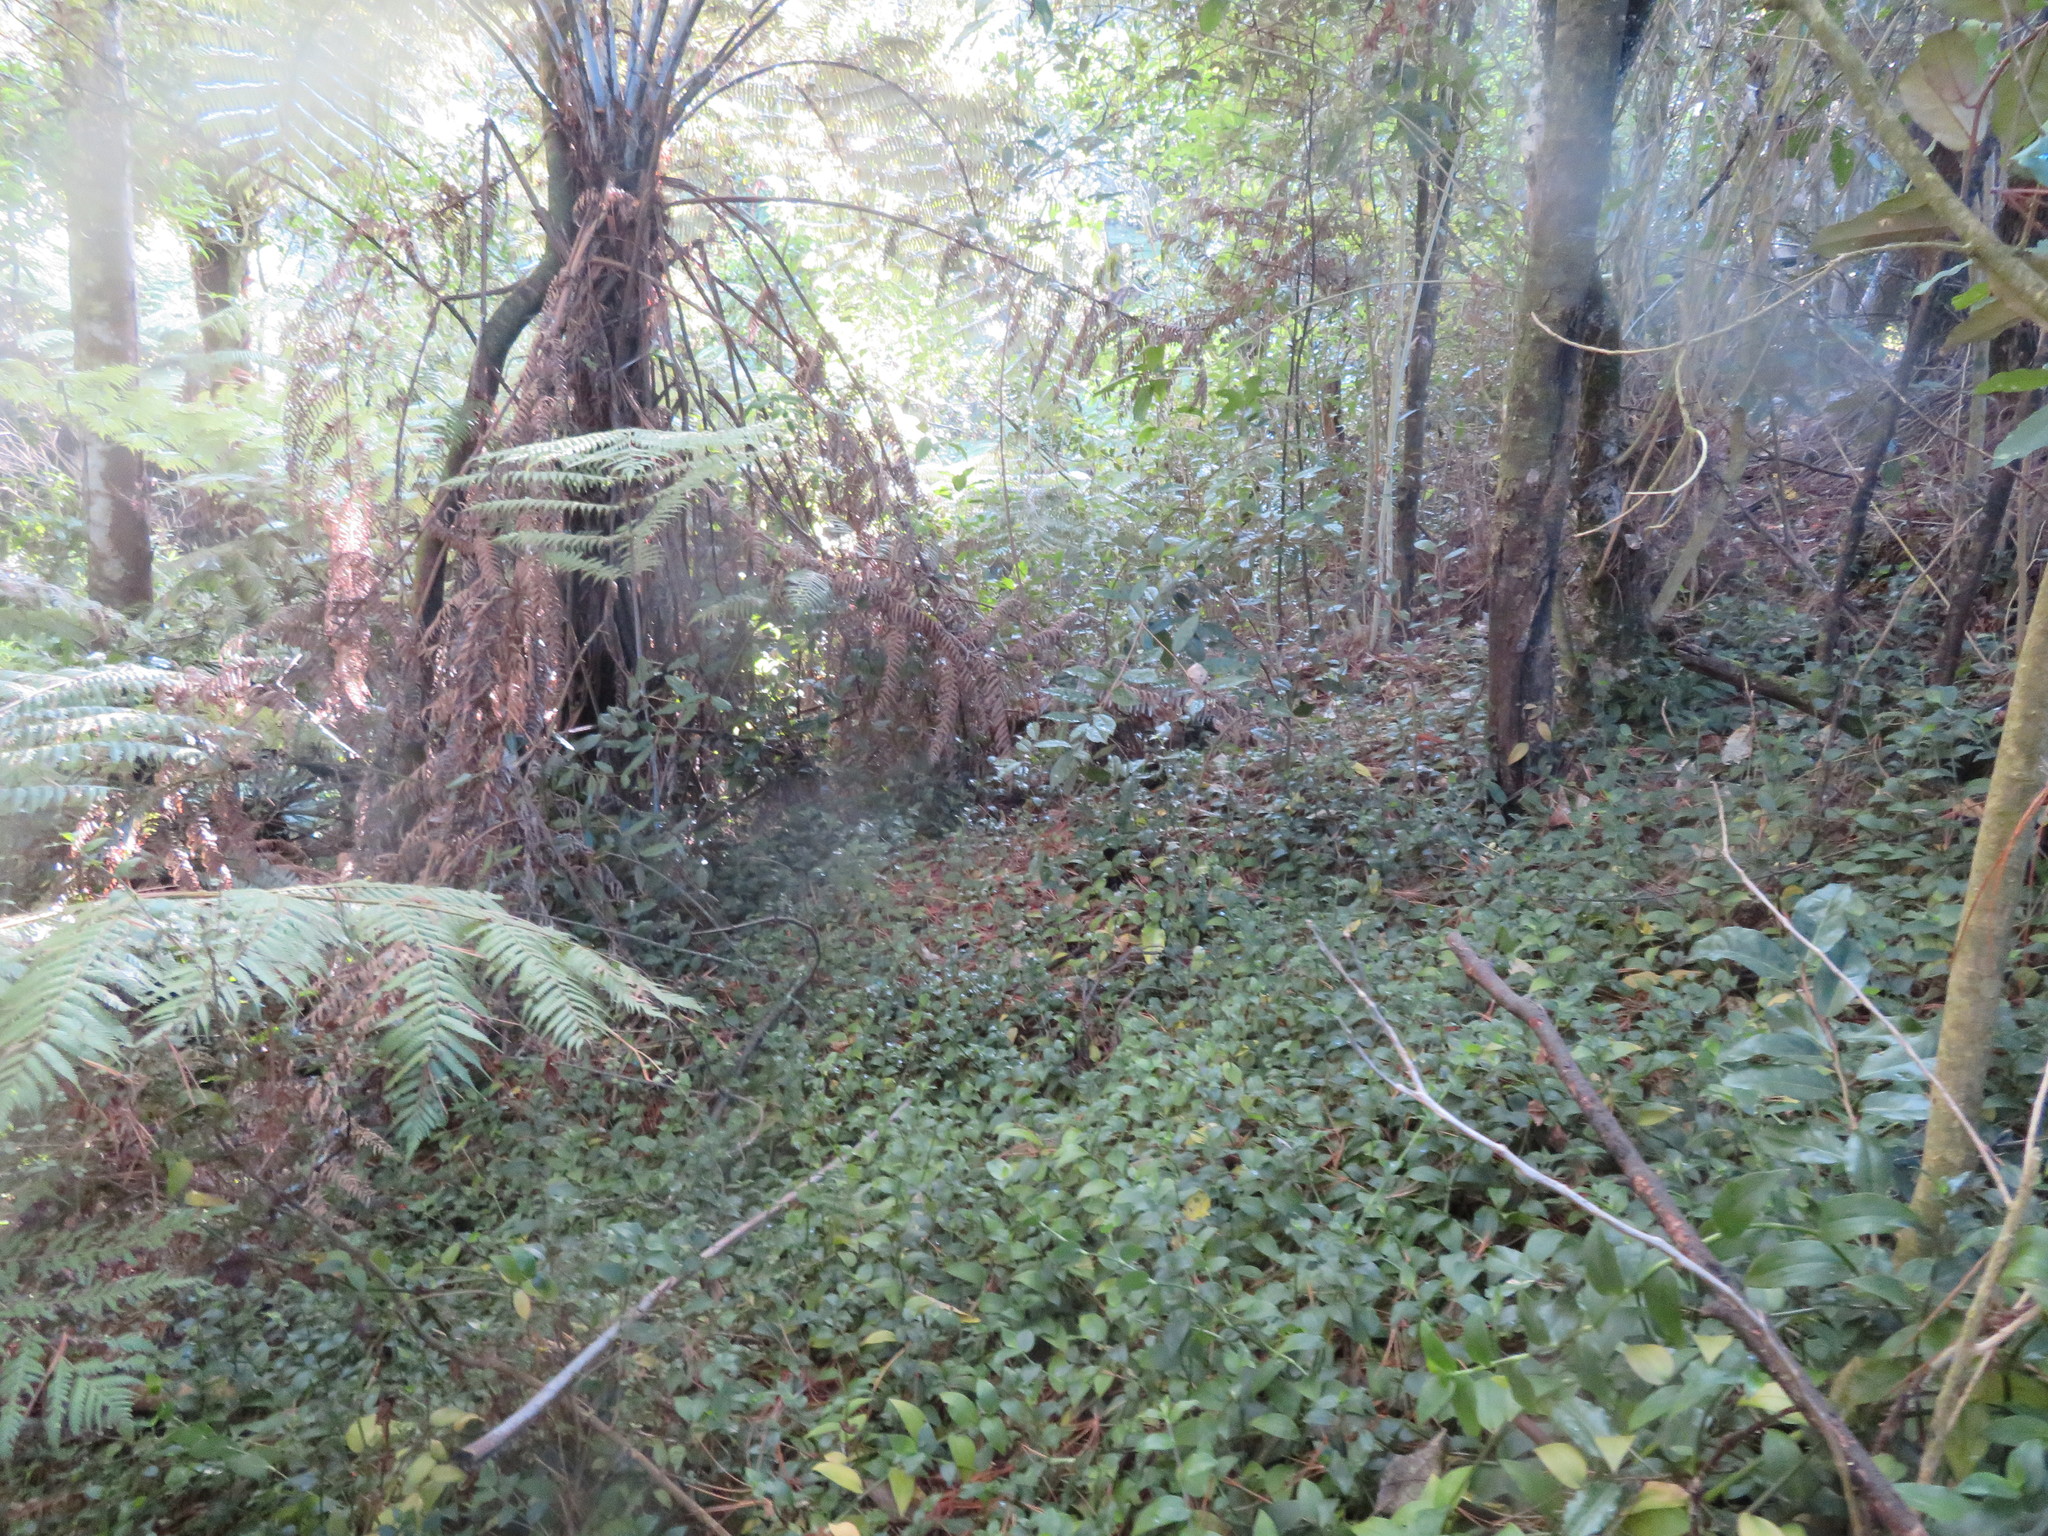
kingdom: Plantae
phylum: Tracheophyta
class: Liliopsida
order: Commelinales
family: Commelinaceae
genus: Tradescantia
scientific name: Tradescantia fluminensis
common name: Wandering-jew
